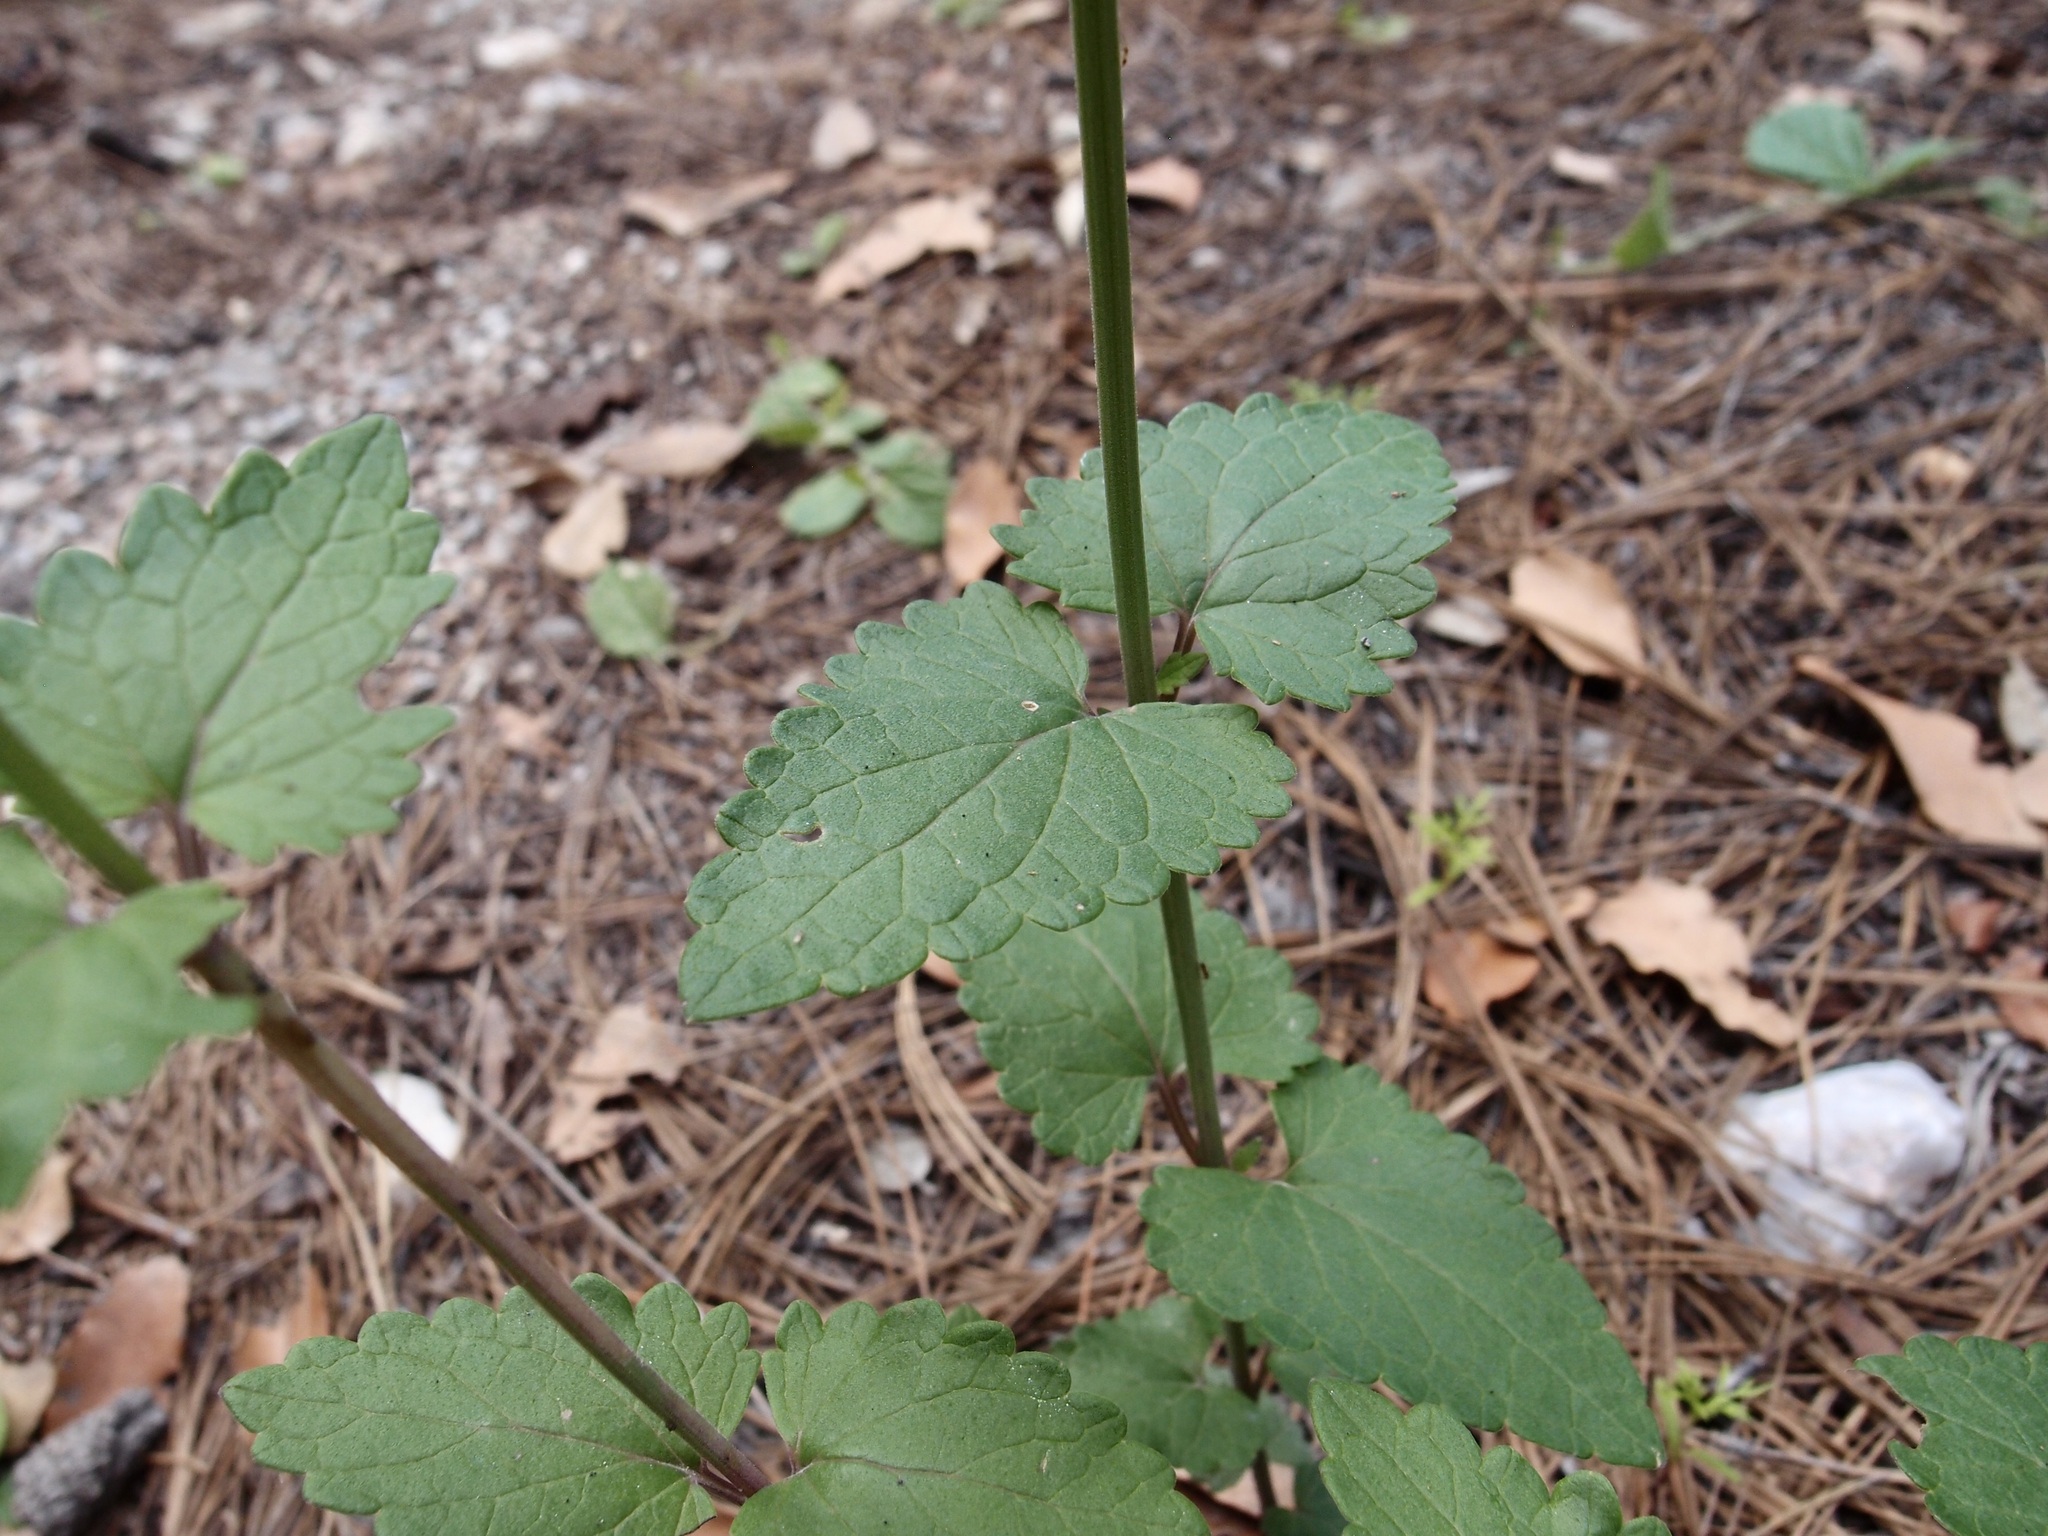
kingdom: Plantae
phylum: Tracheophyta
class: Magnoliopsida
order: Lamiales
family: Lamiaceae
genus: Agastache
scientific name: Agastache pallida
